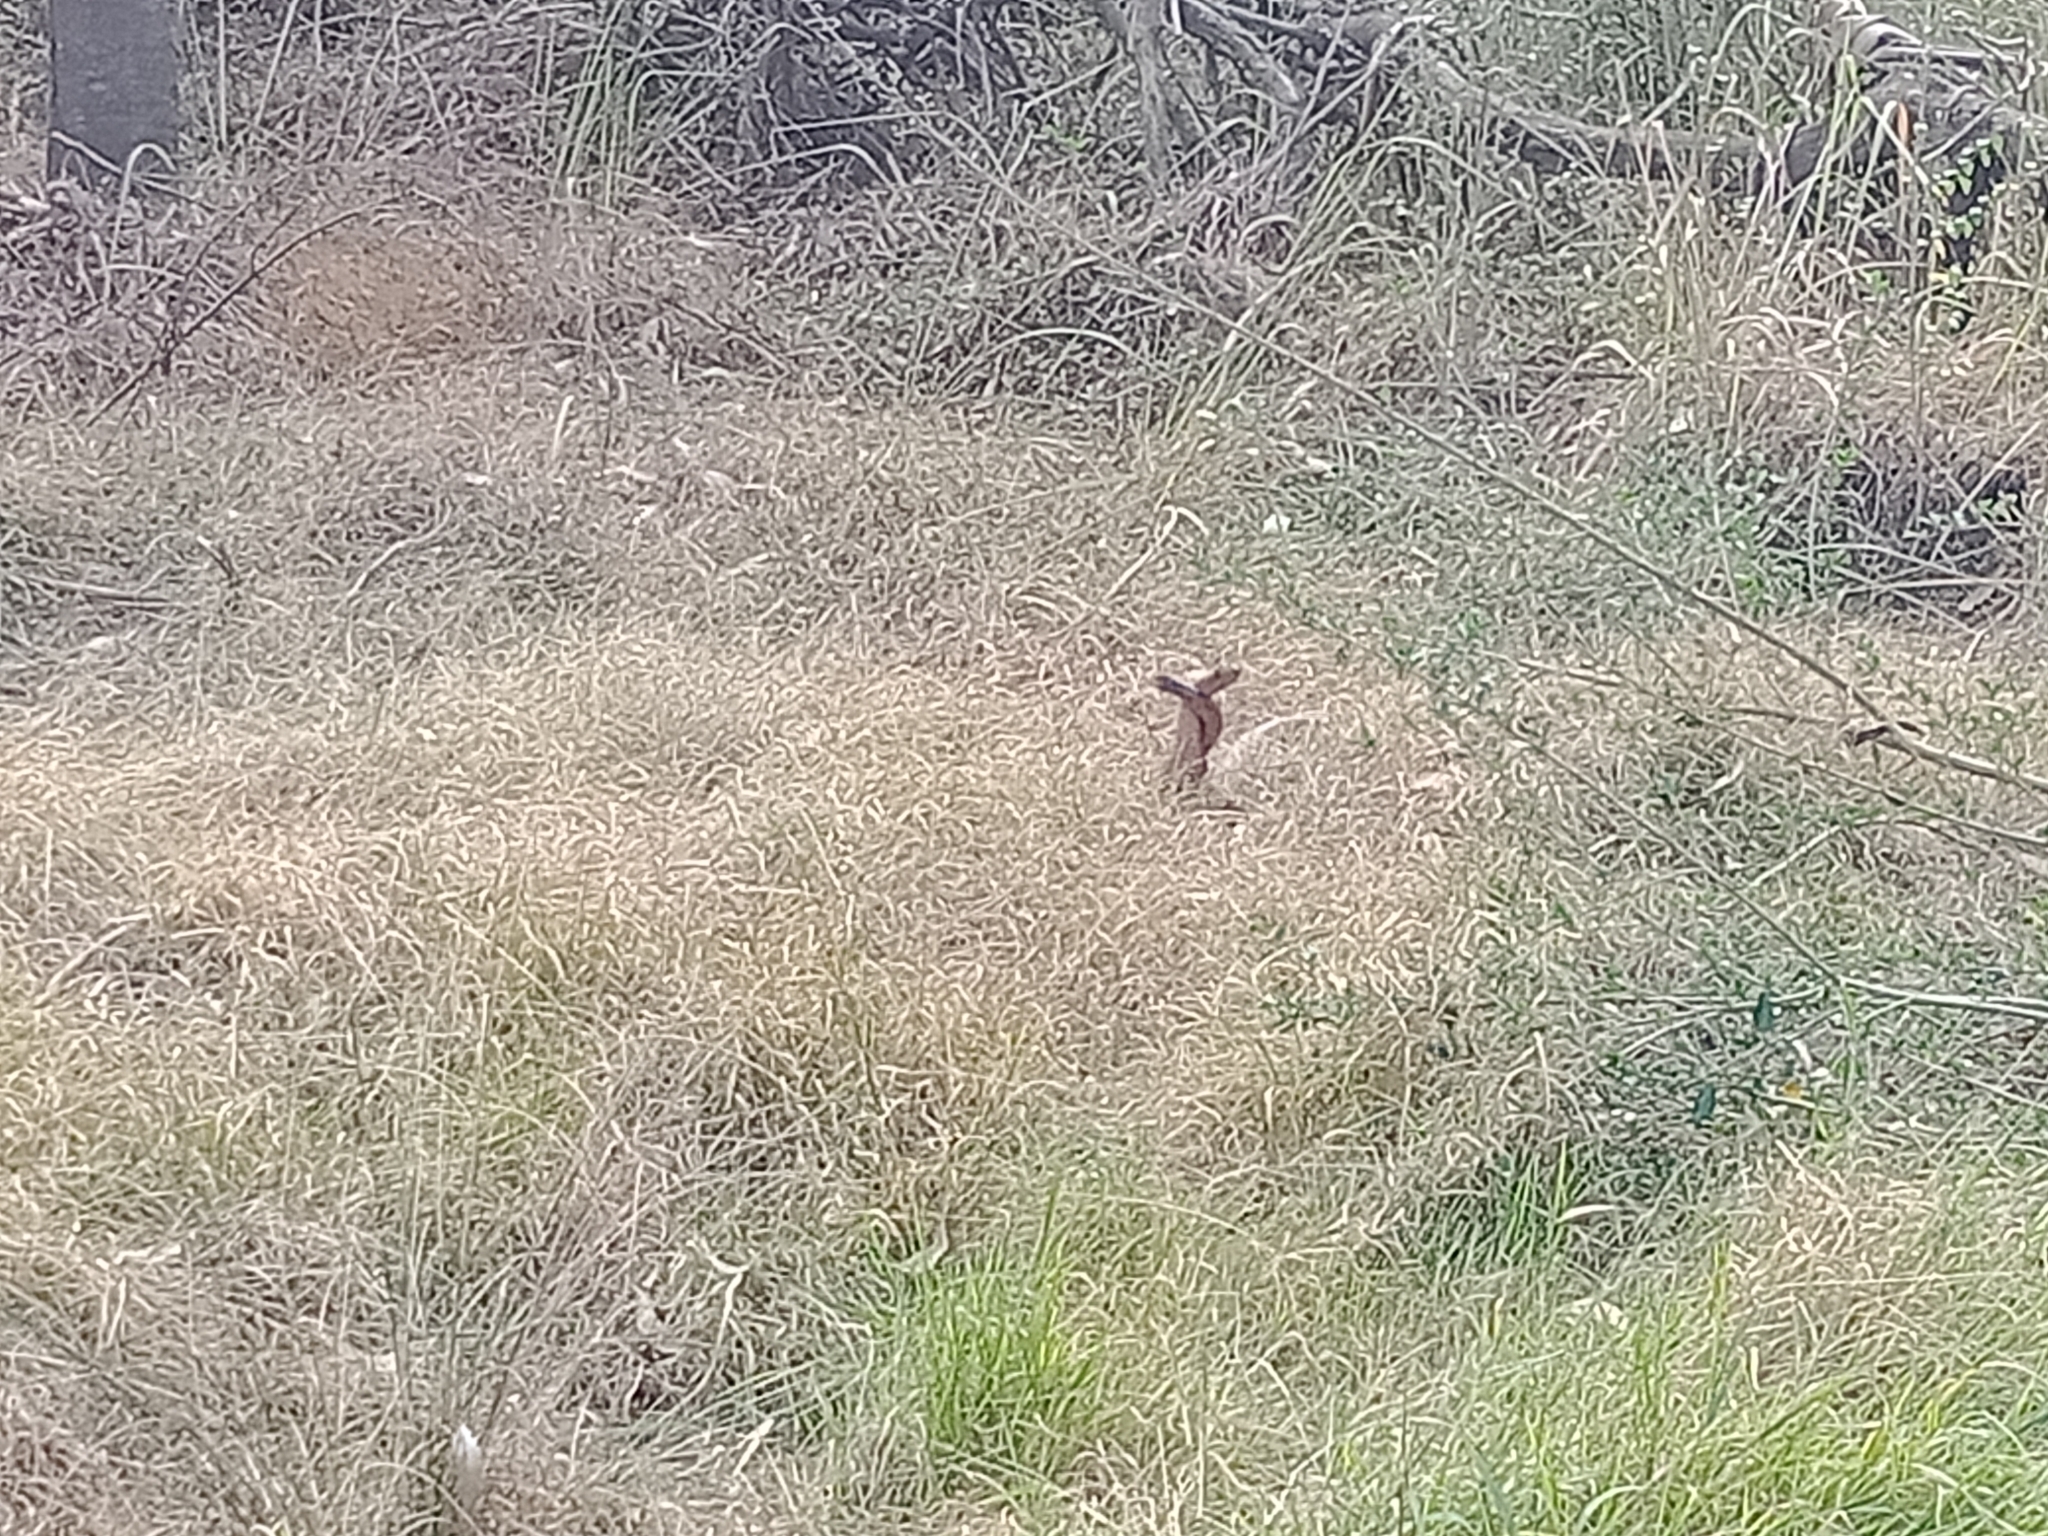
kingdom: Animalia
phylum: Chordata
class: Squamata
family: Elapidae
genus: Pseudechis
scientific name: Pseudechis porphyriacus
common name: Australian black snake
